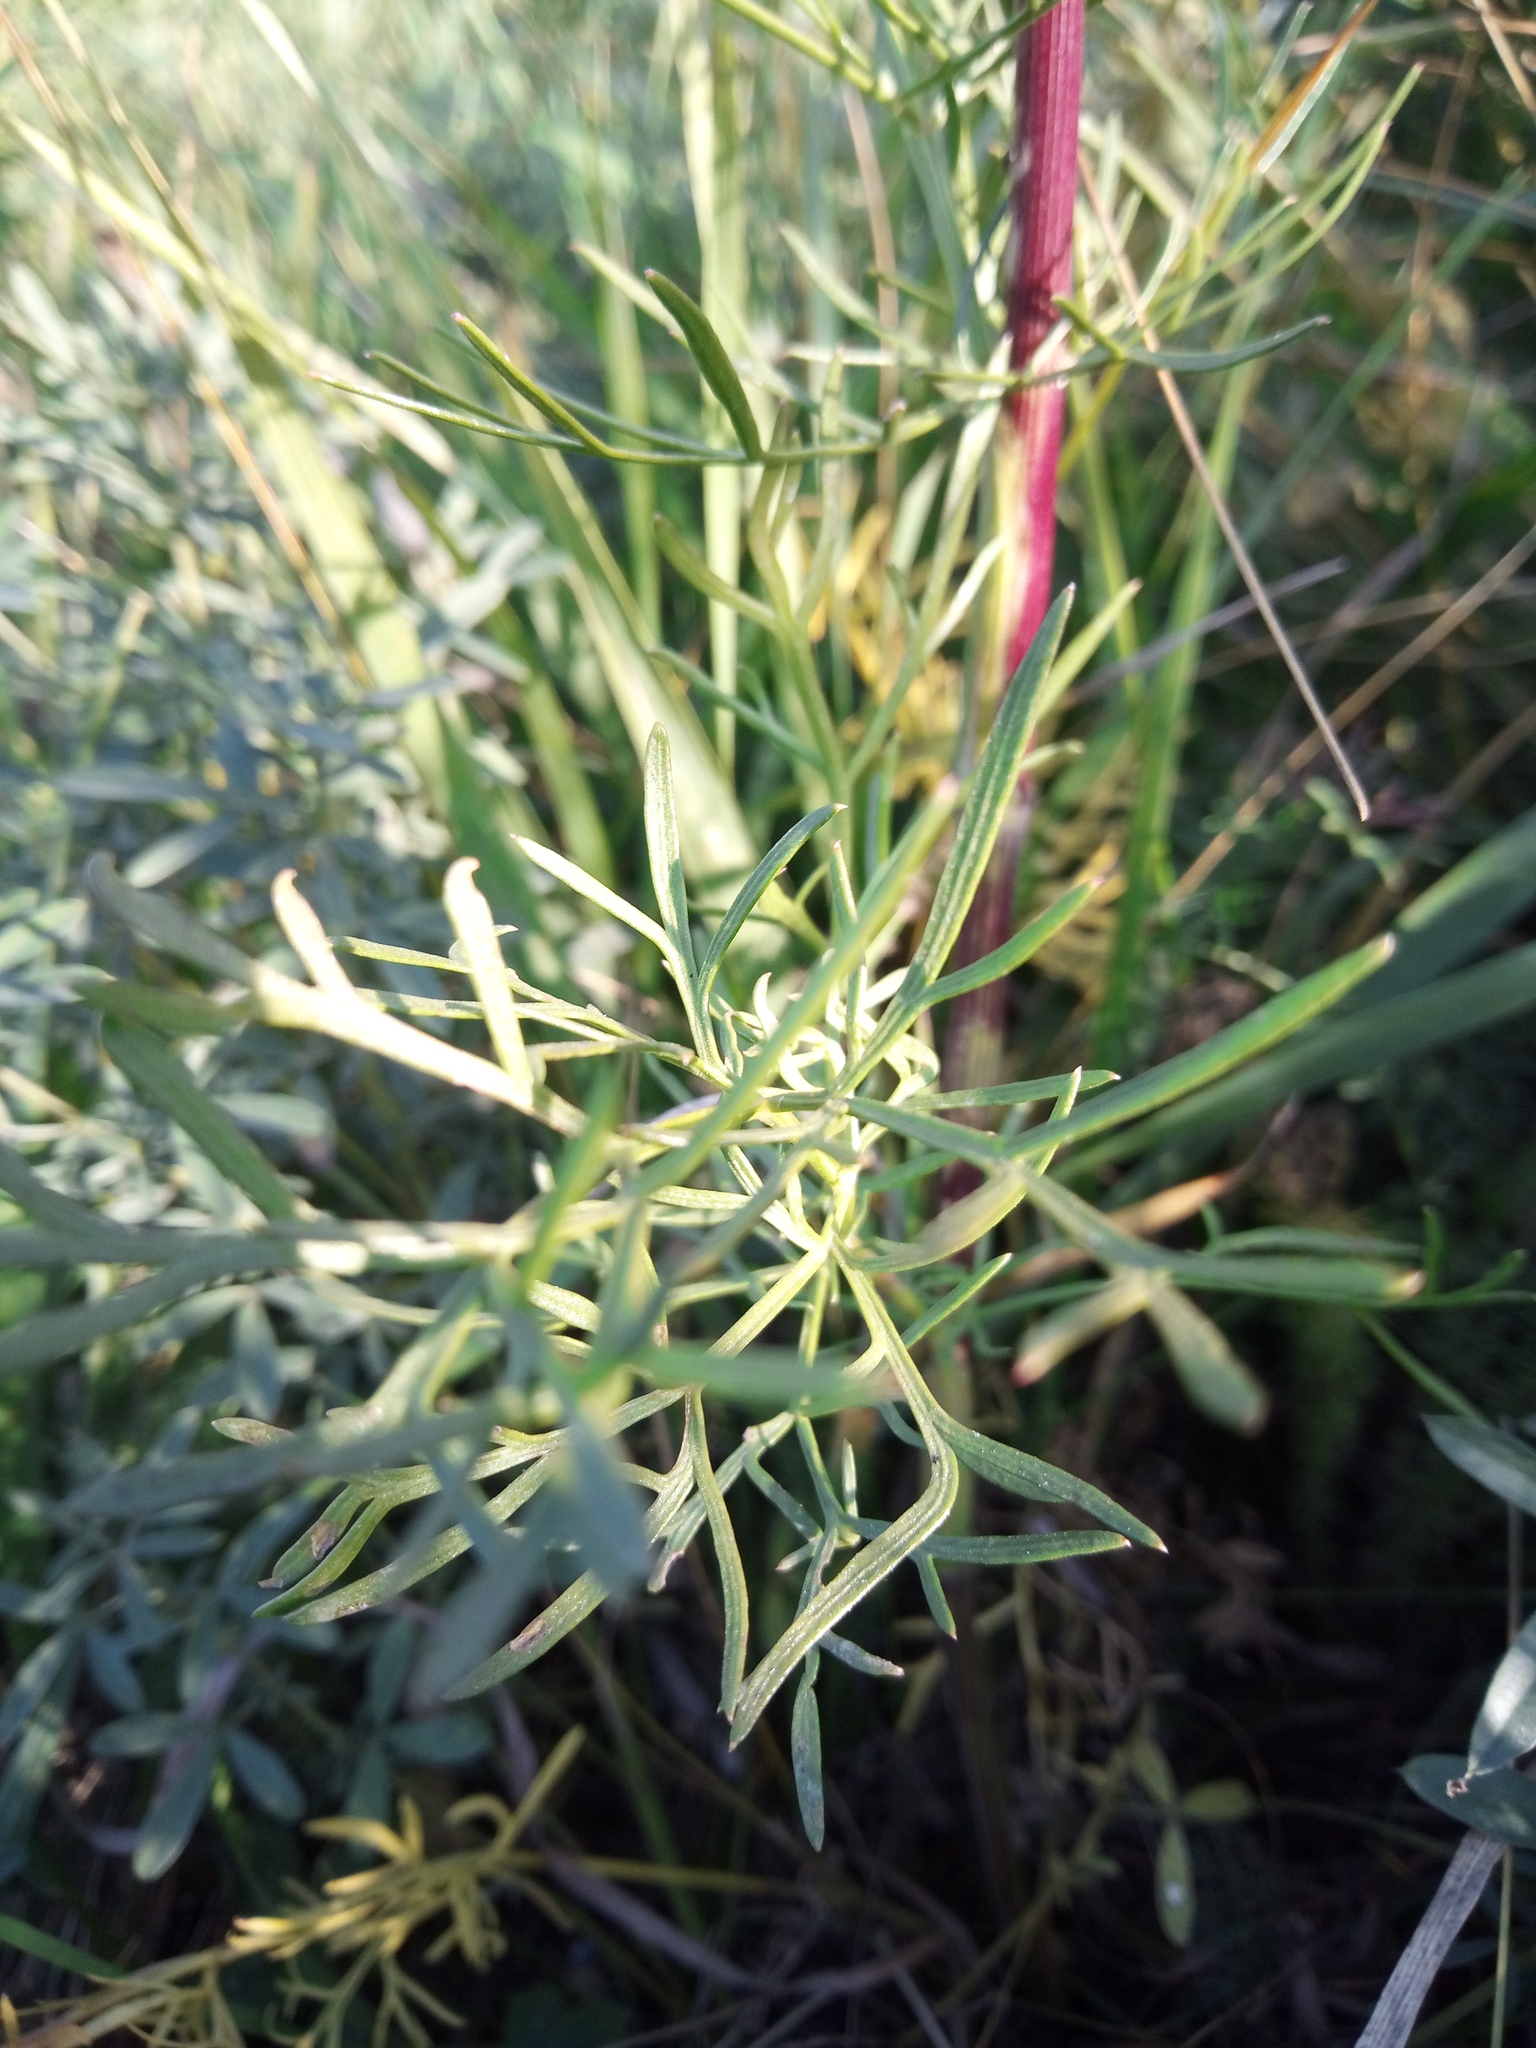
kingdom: Plantae
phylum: Tracheophyta
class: Magnoliopsida
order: Apiales
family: Apiaceae
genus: Seseli
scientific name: Seseli annuum
